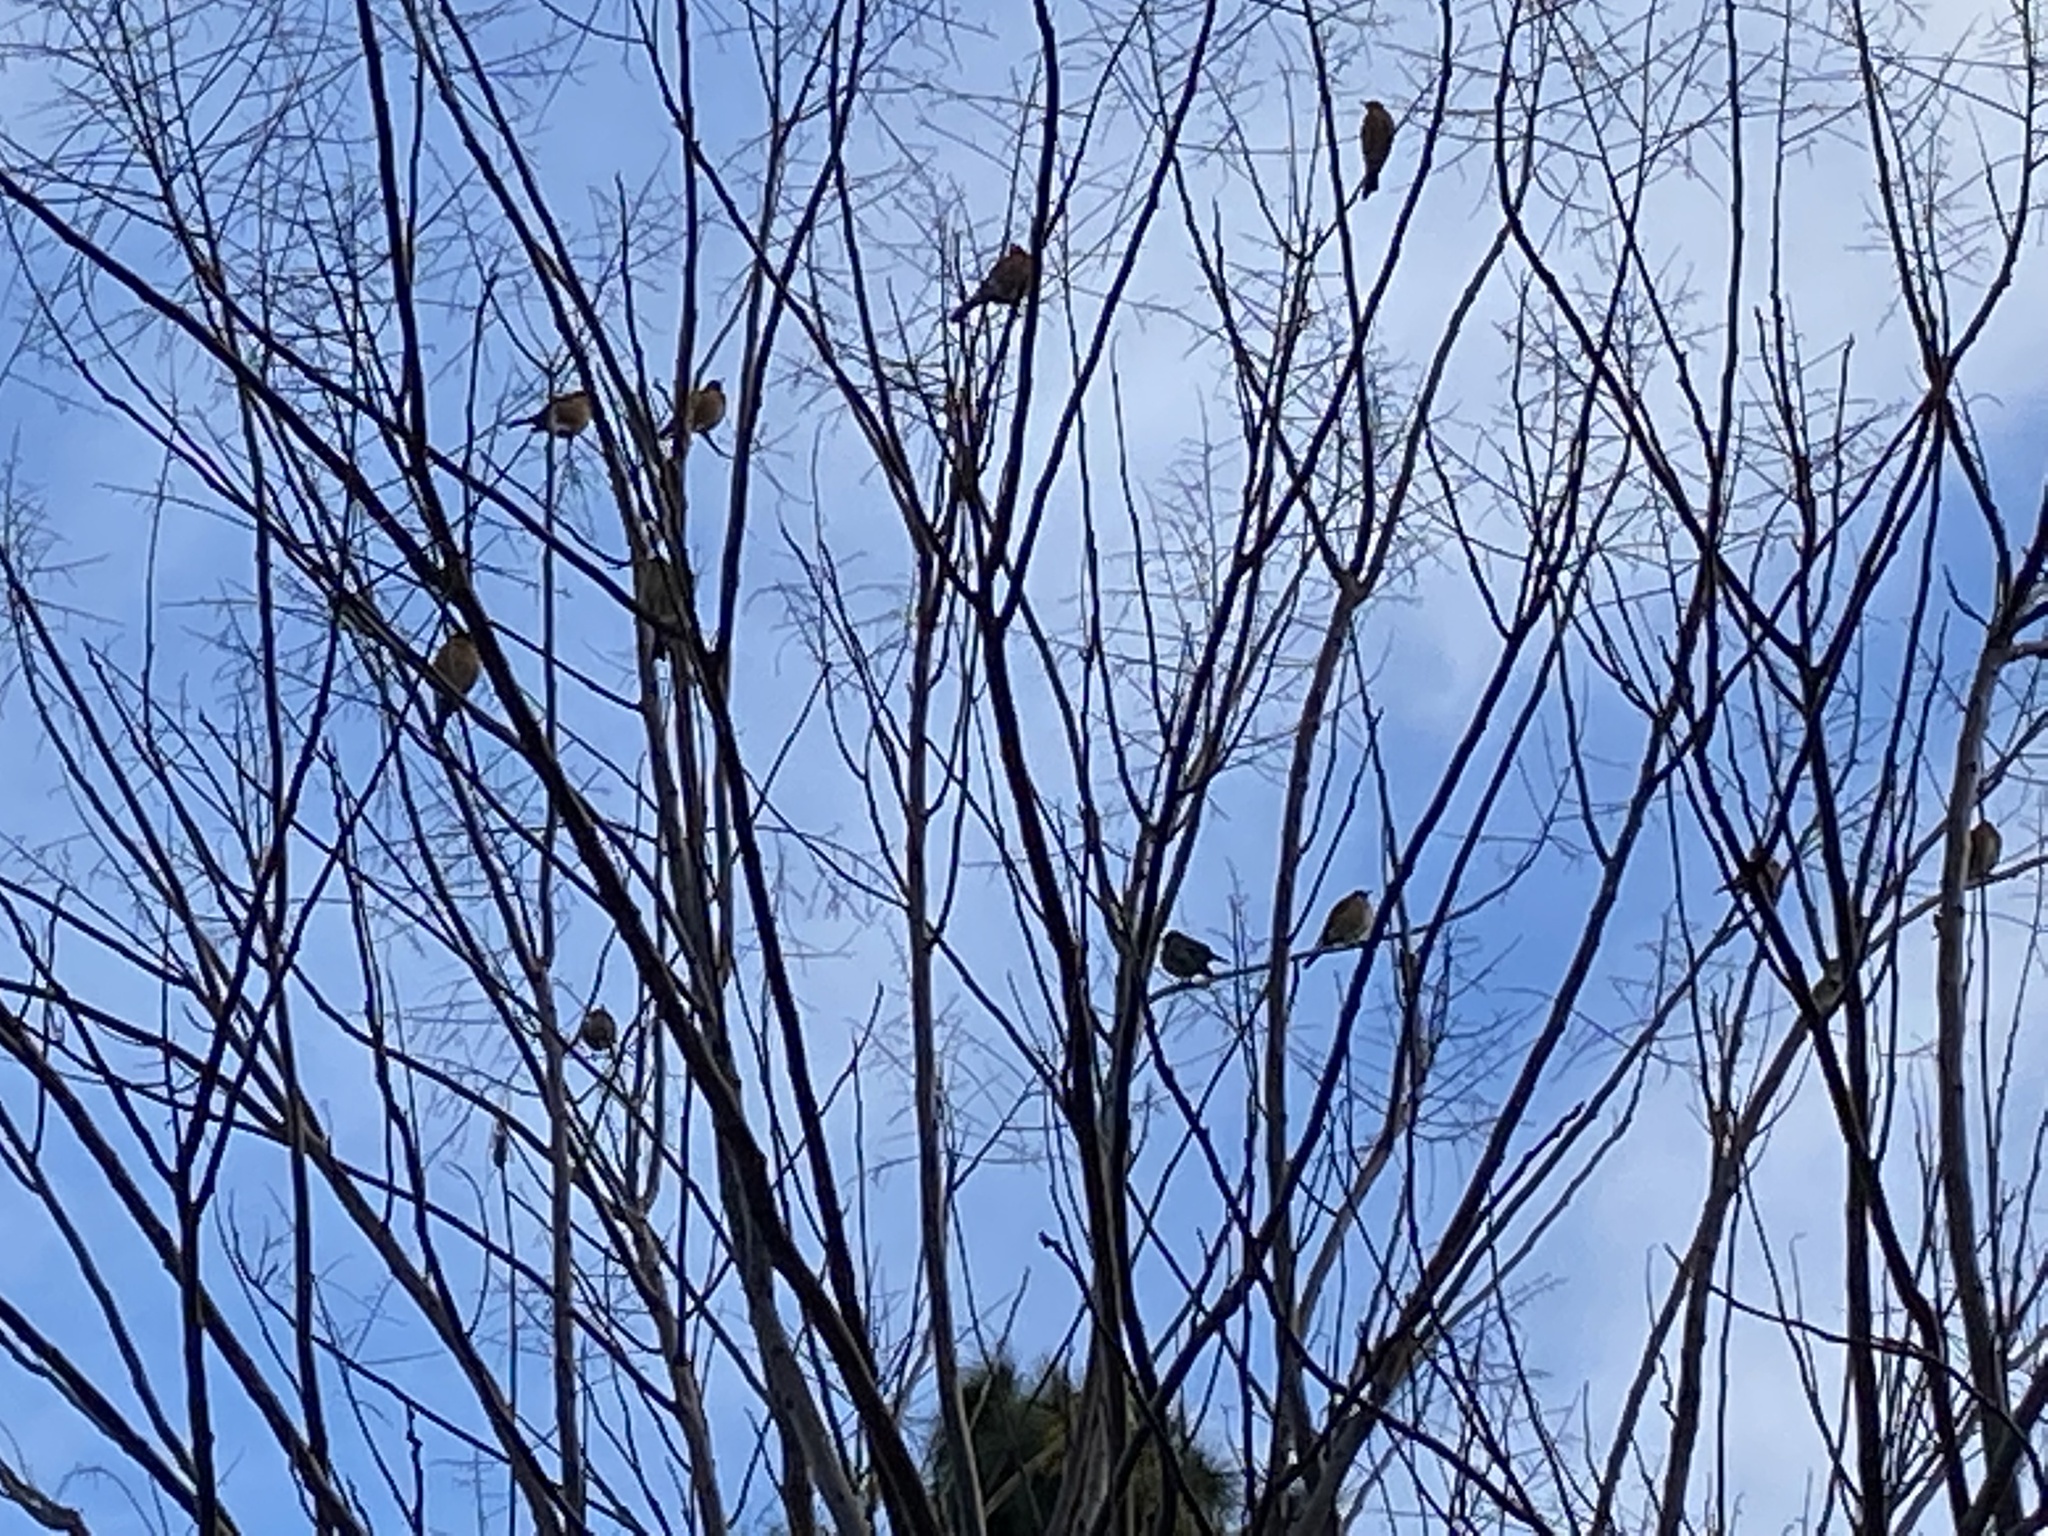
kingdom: Animalia
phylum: Chordata
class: Aves
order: Passeriformes
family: Turdidae
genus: Turdus
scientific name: Turdus migratorius
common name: American robin
